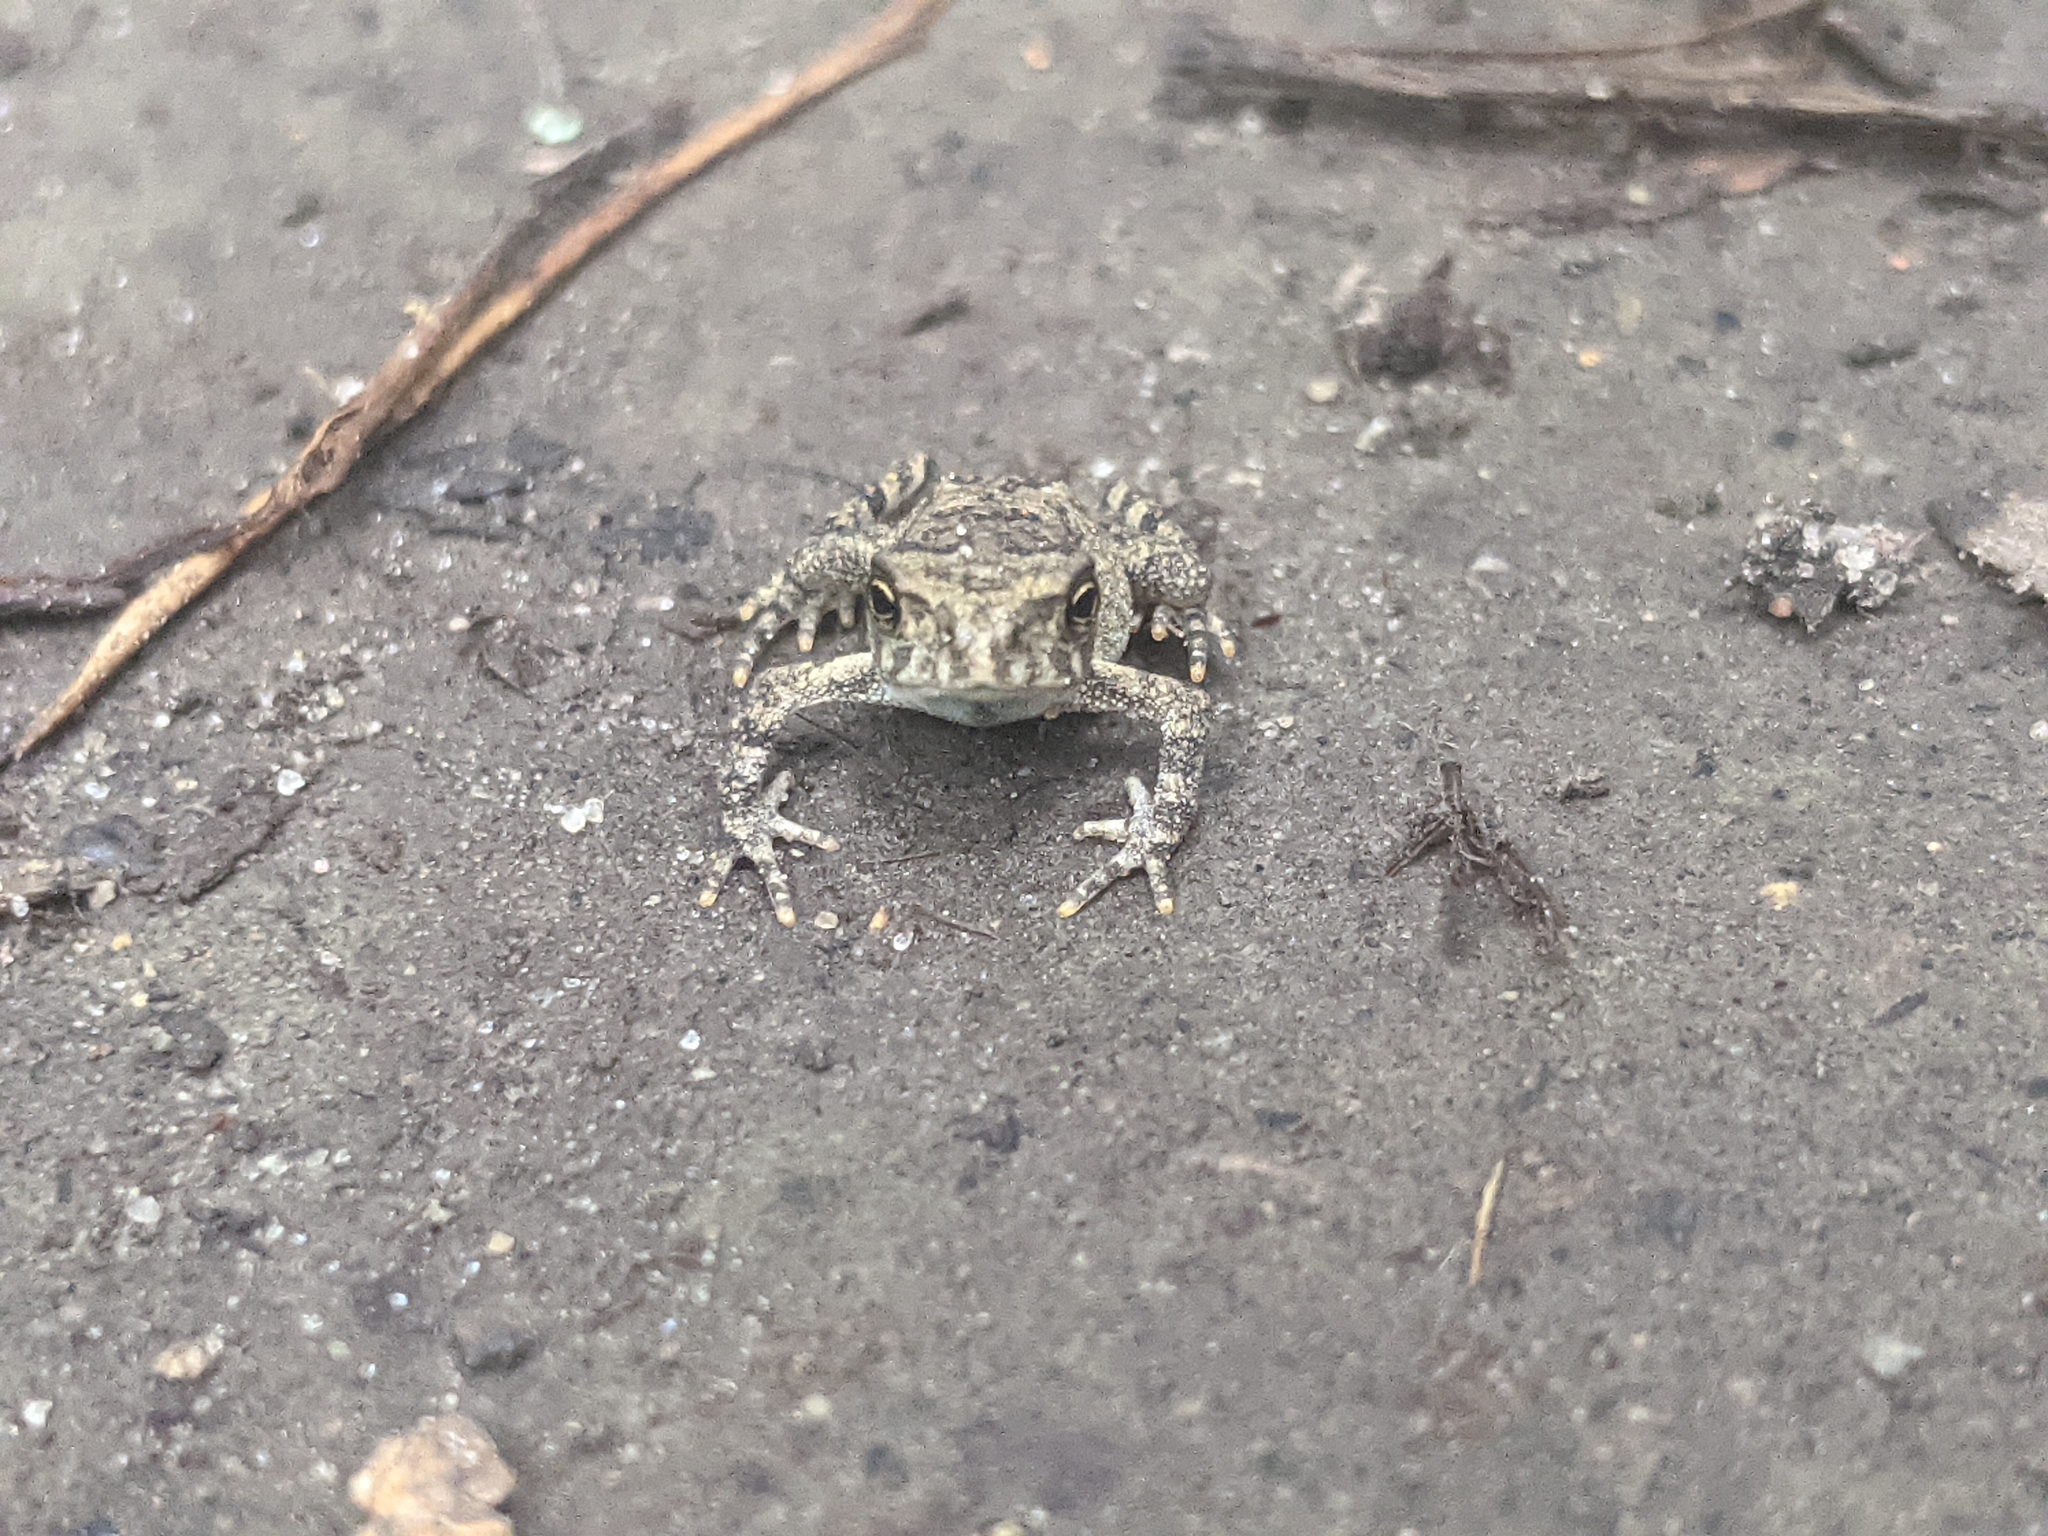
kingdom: Animalia
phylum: Chordata
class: Amphibia
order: Anura
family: Bufonidae
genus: Anaxyrus
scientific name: Anaxyrus americanus
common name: American toad
